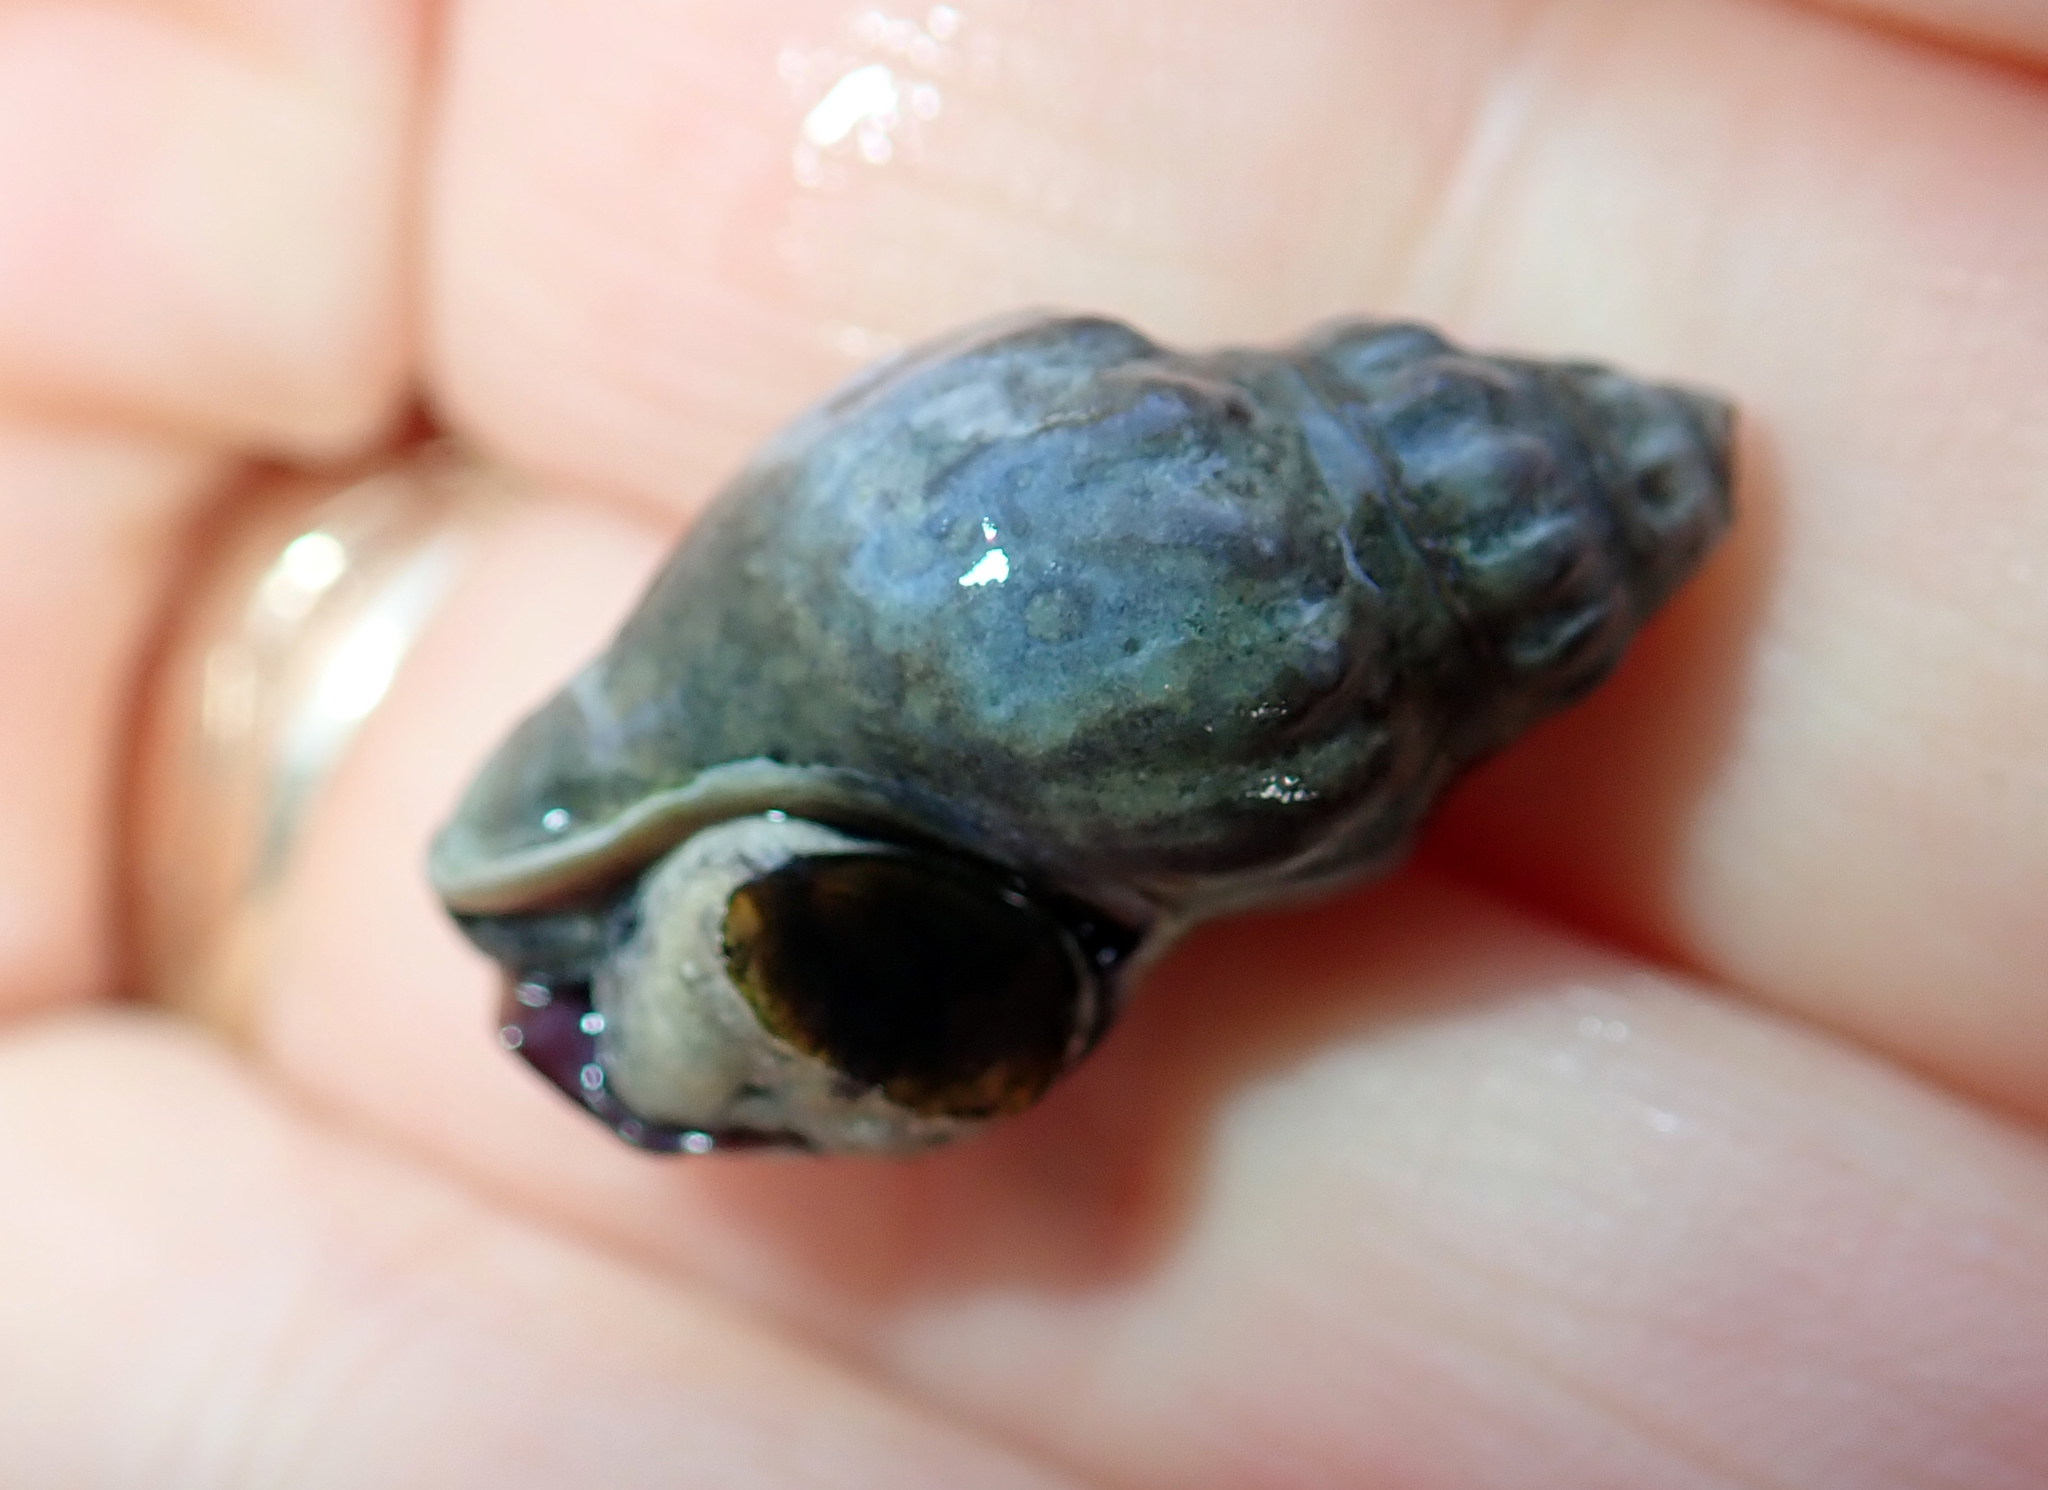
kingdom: Animalia
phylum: Mollusca
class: Gastropoda
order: Neogastropoda
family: Cominellidae
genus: Cominella
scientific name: Cominella glandiformis
